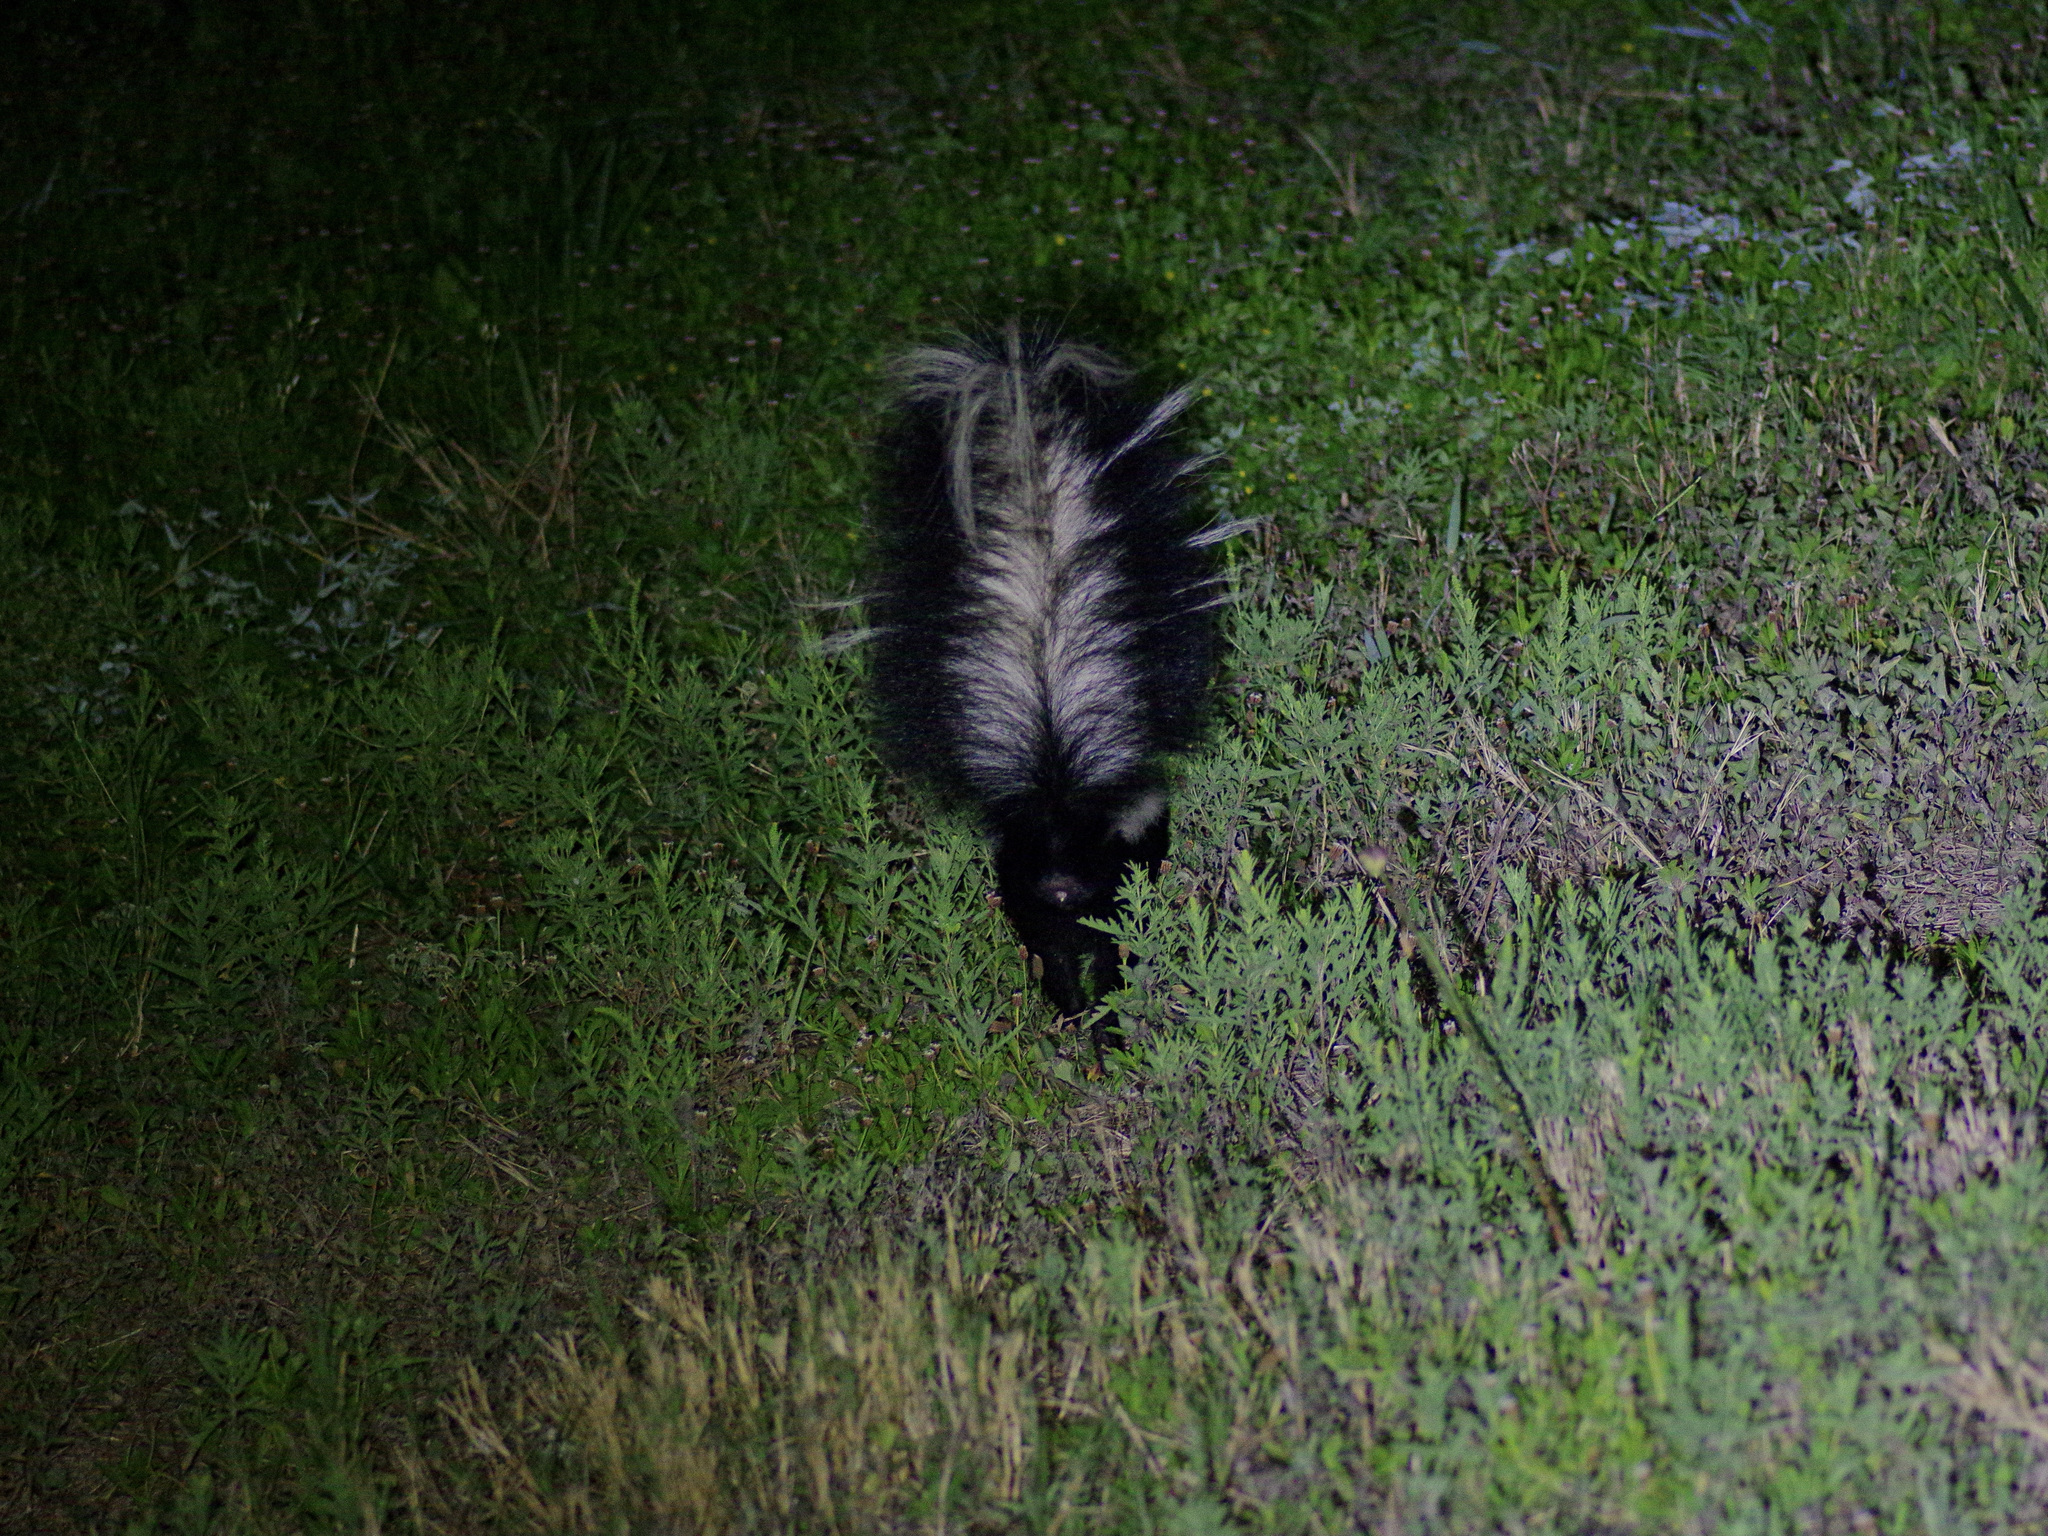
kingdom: Animalia
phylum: Chordata
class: Mammalia
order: Carnivora
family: Mephitidae
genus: Mephitis
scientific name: Mephitis mephitis
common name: Striped skunk
